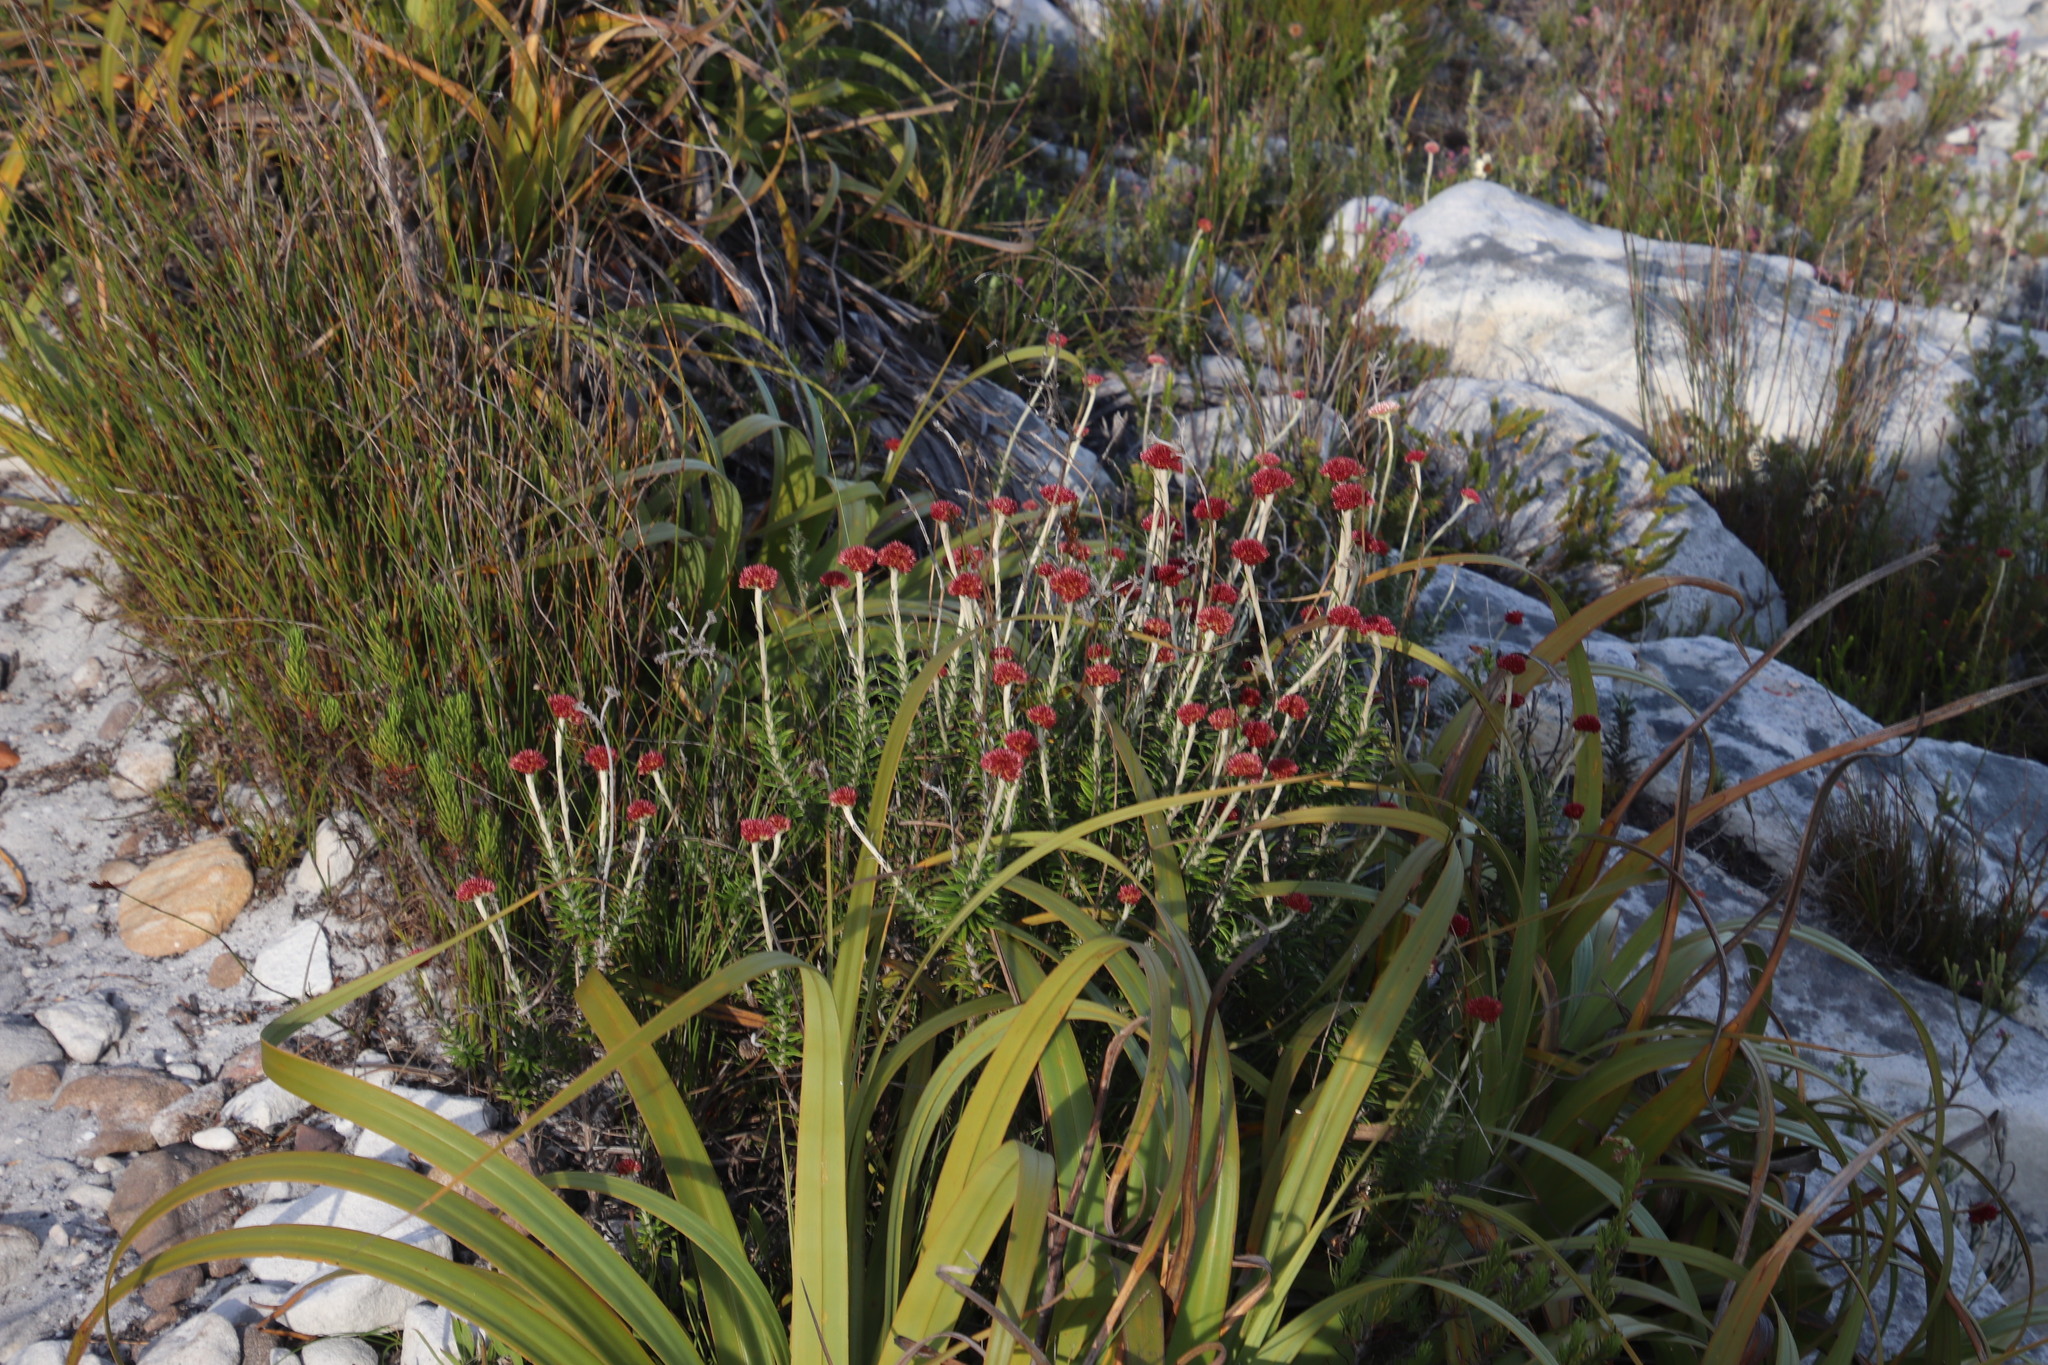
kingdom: Plantae
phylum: Tracheophyta
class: Magnoliopsida
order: Asterales
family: Asteraceae
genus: Anaxeton
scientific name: Anaxeton arborescens
